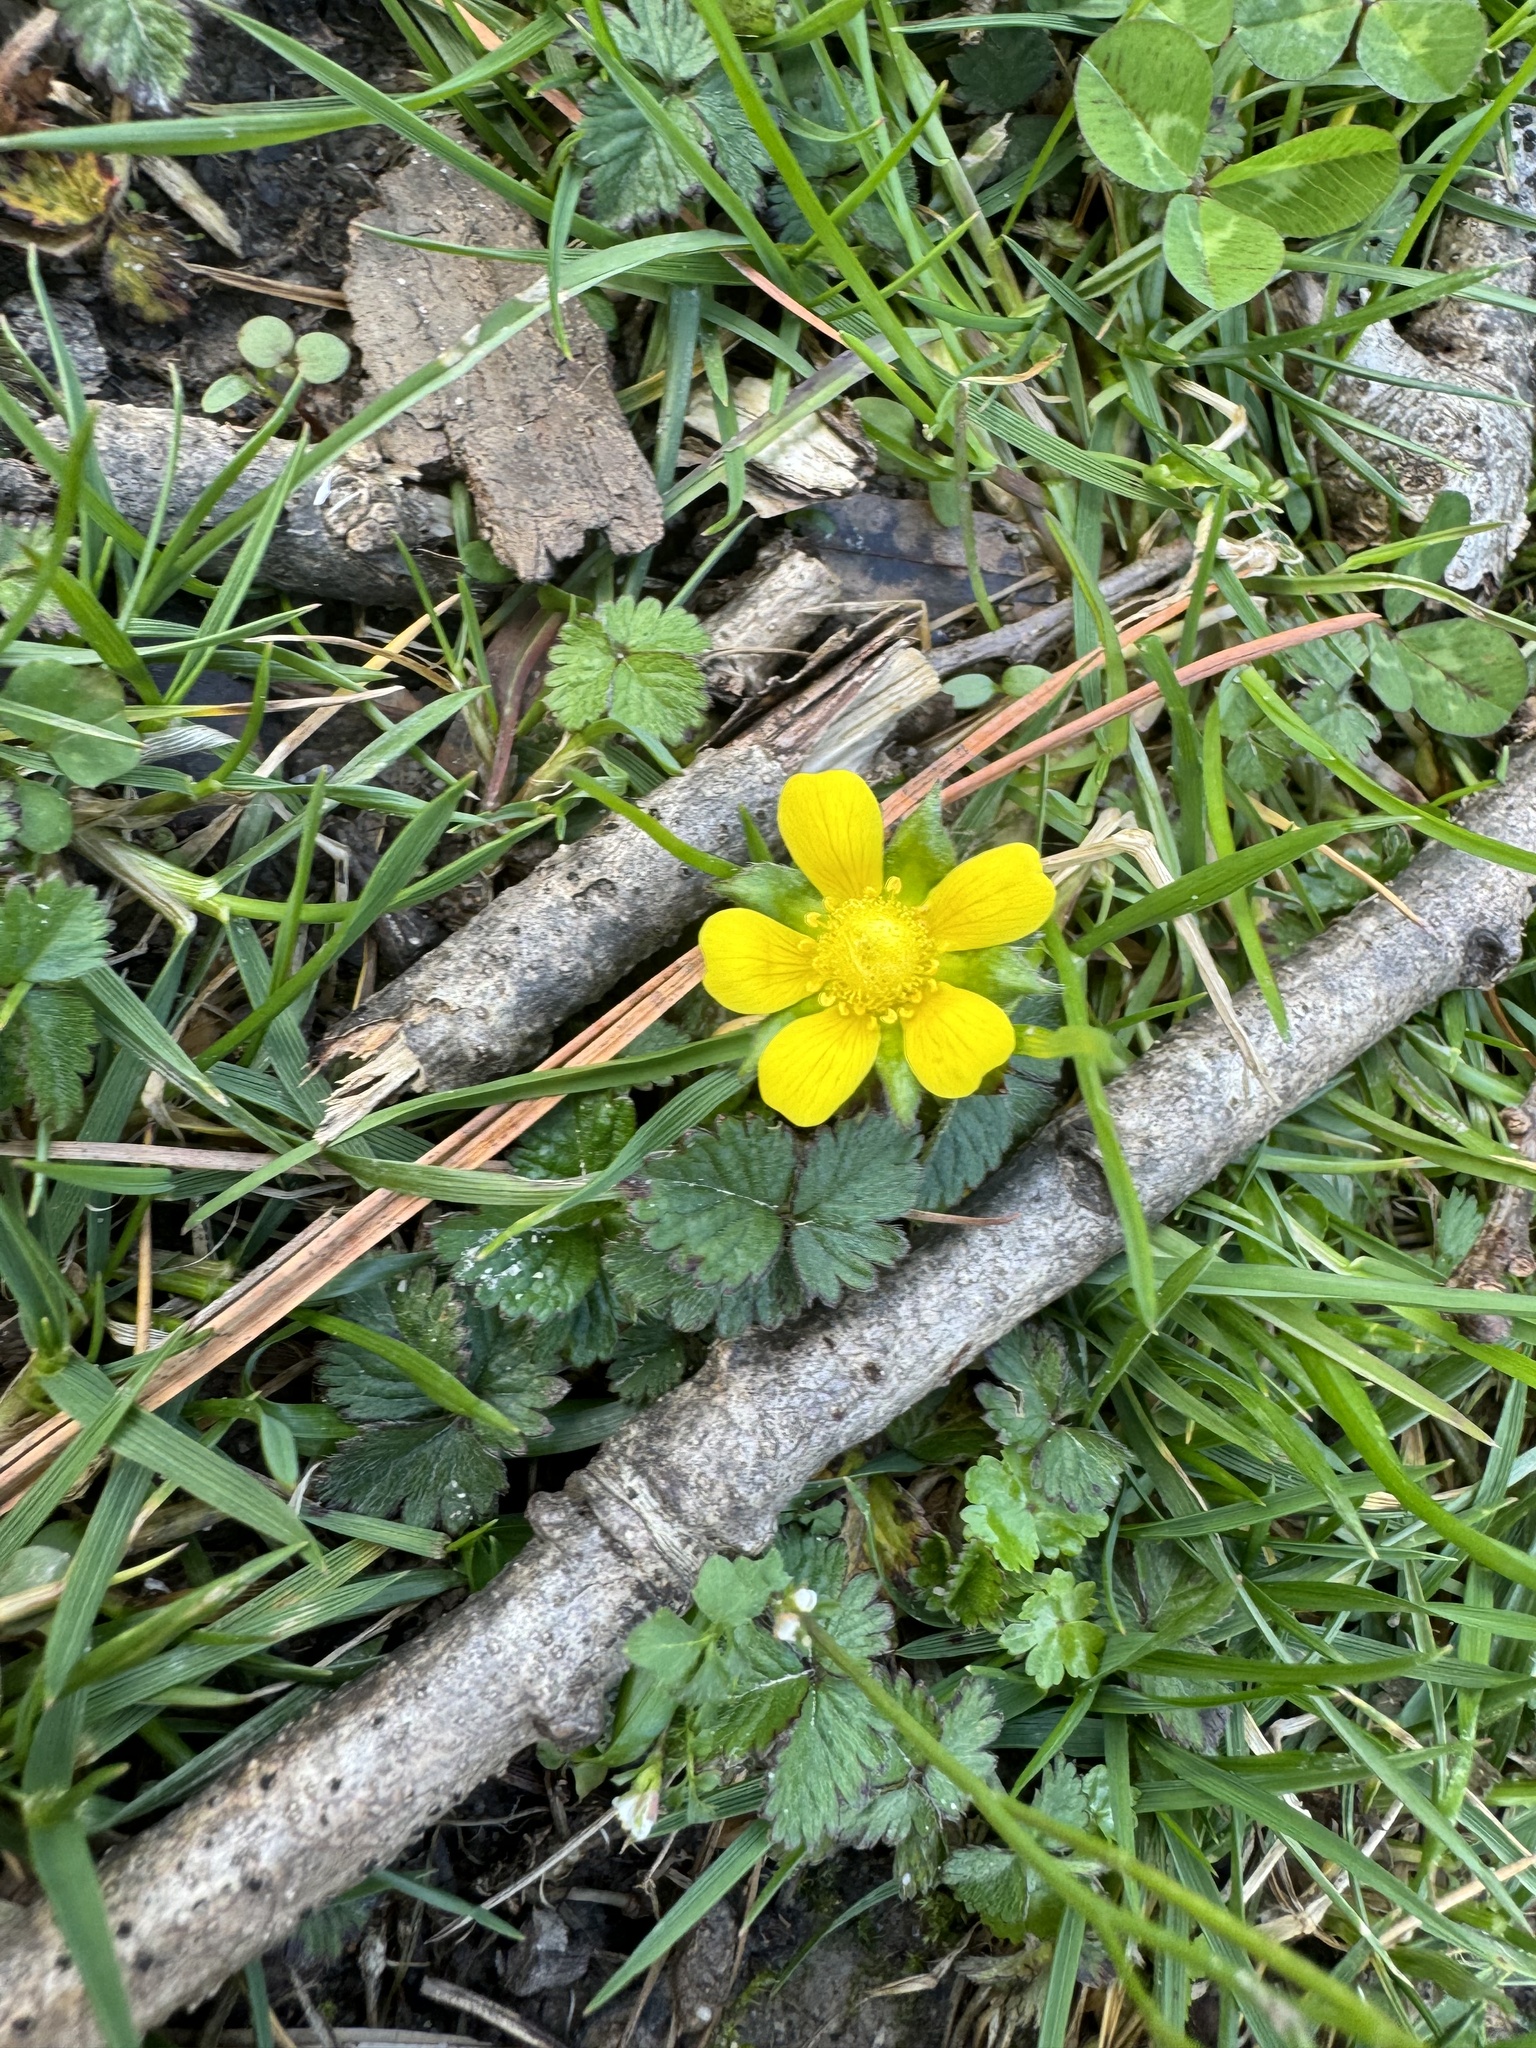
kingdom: Plantae
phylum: Tracheophyta
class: Magnoliopsida
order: Rosales
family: Rosaceae
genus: Potentilla
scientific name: Potentilla indica
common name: Yellow-flowered strawberry
